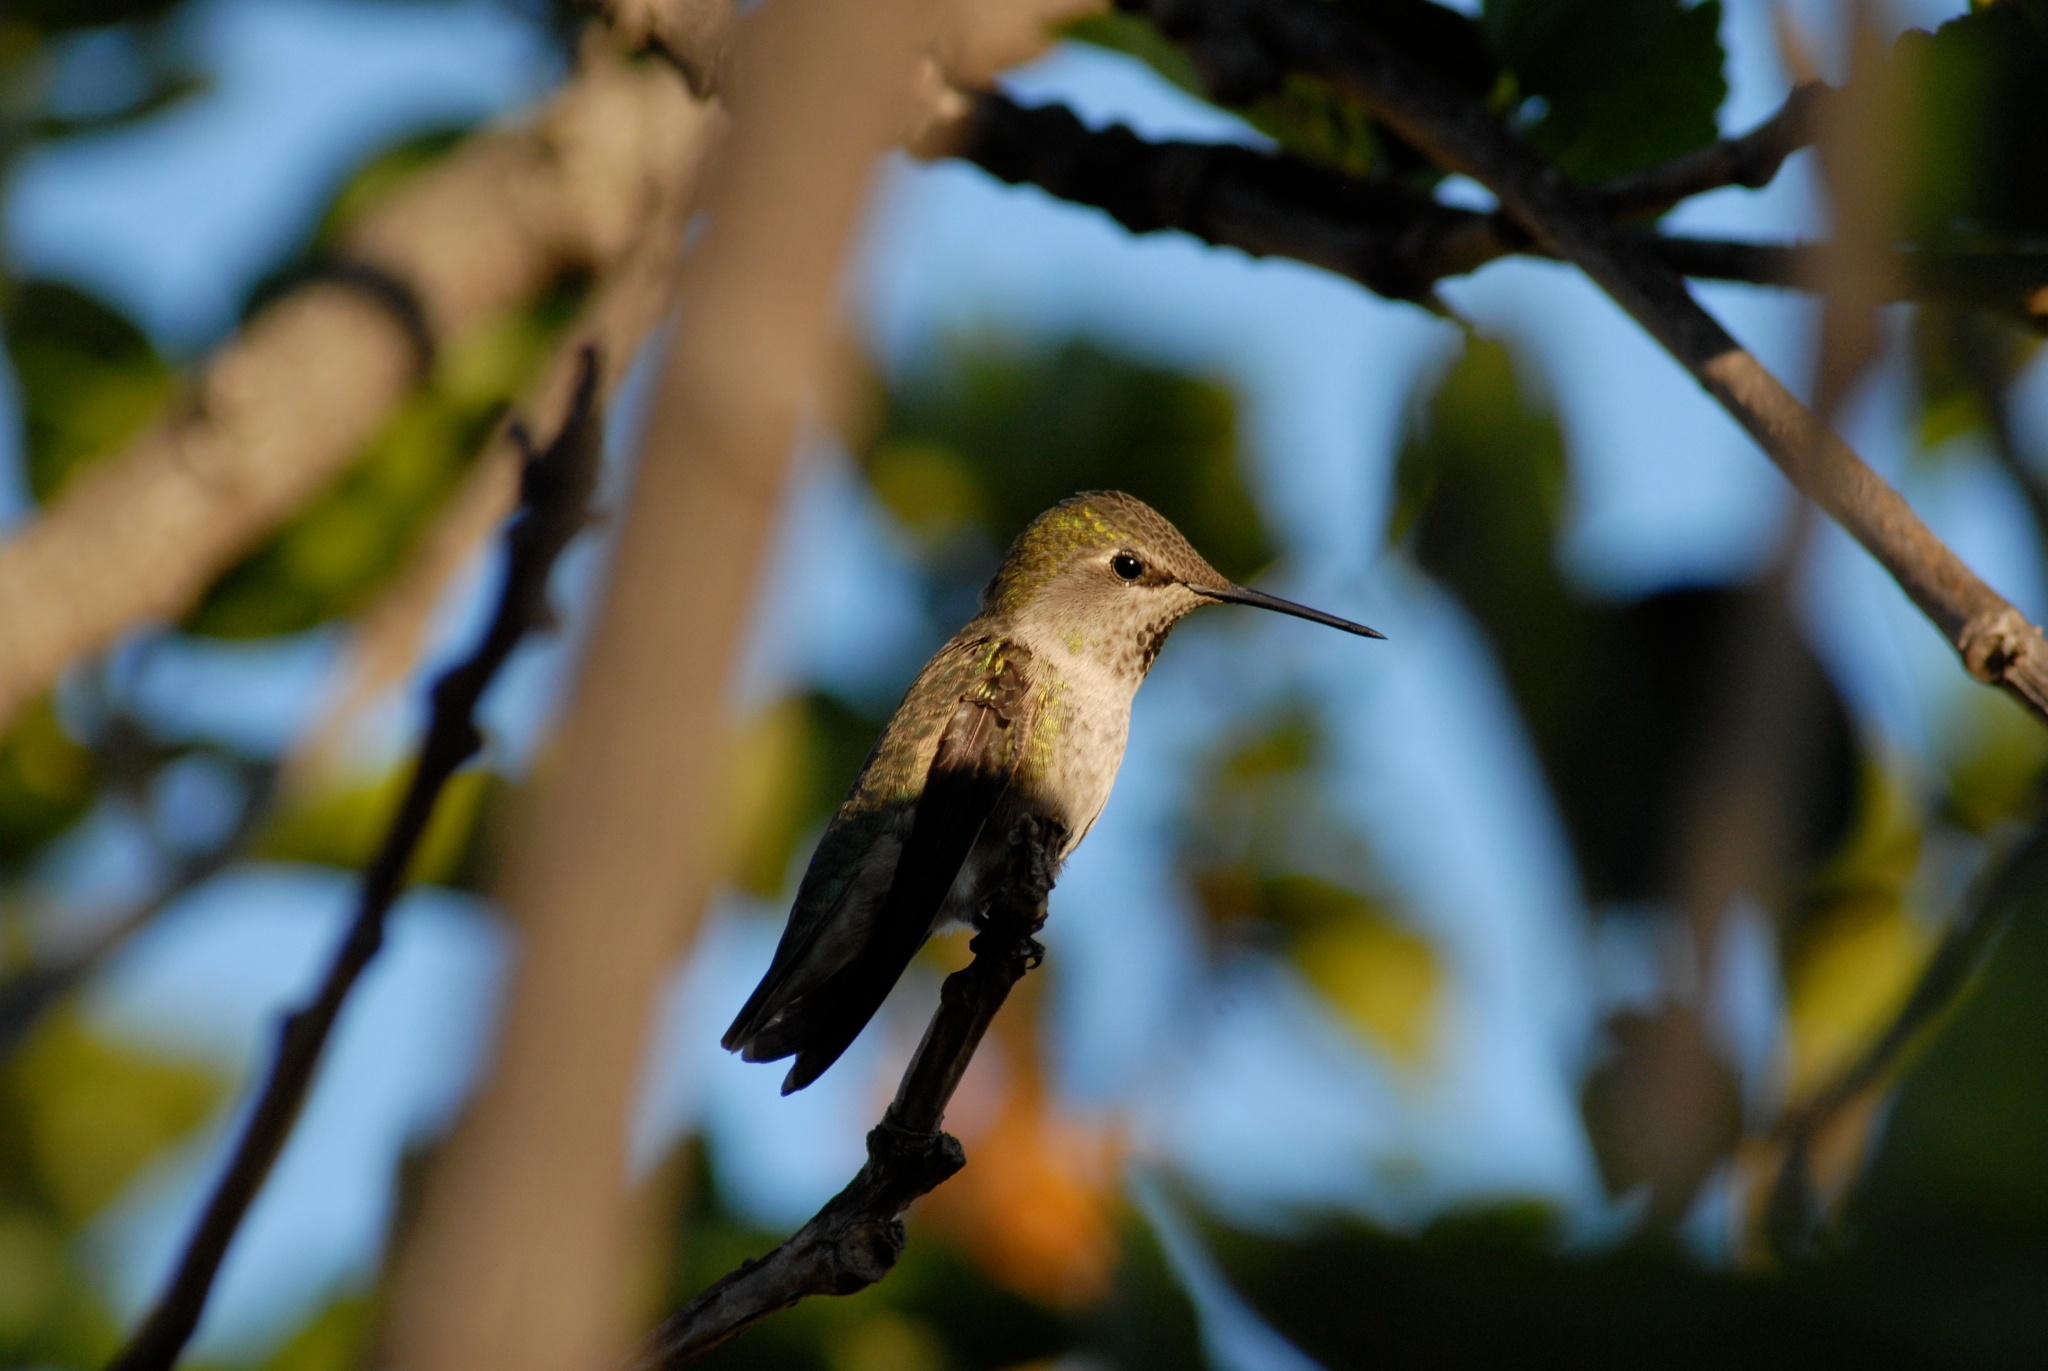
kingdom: Animalia
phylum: Chordata
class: Aves
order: Apodiformes
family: Trochilidae
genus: Calypte
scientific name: Calypte anna
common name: Anna's hummingbird
